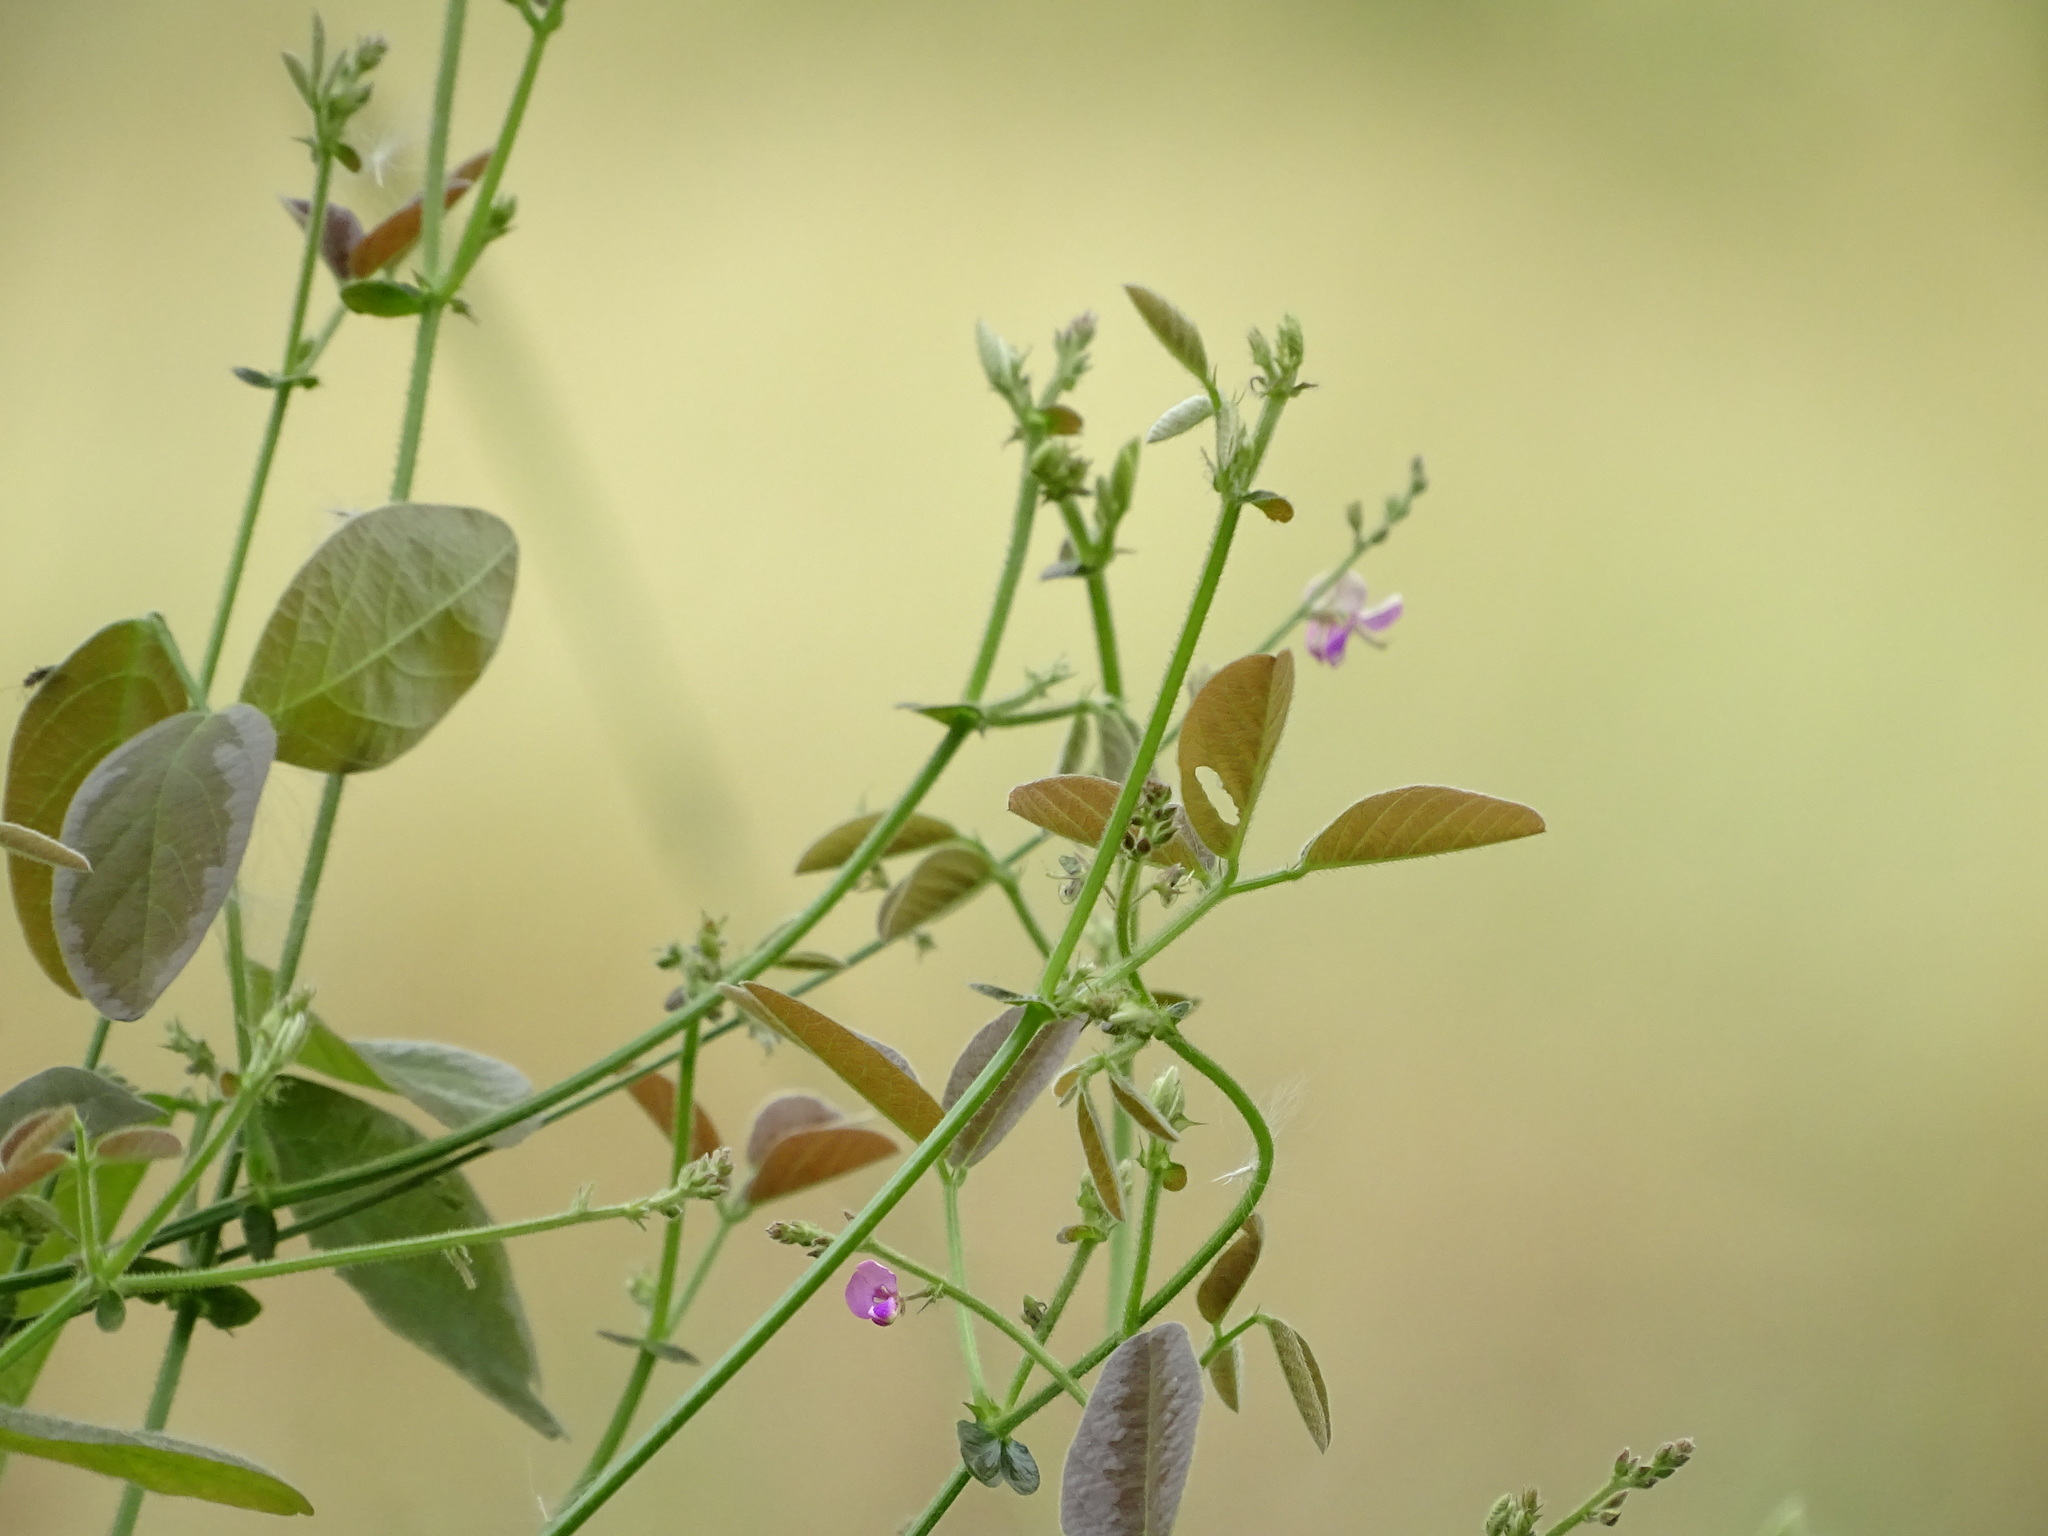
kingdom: Plantae
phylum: Tracheophyta
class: Magnoliopsida
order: Fabales
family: Fabaceae
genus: Desmodium
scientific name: Desmodium scorpiurus
